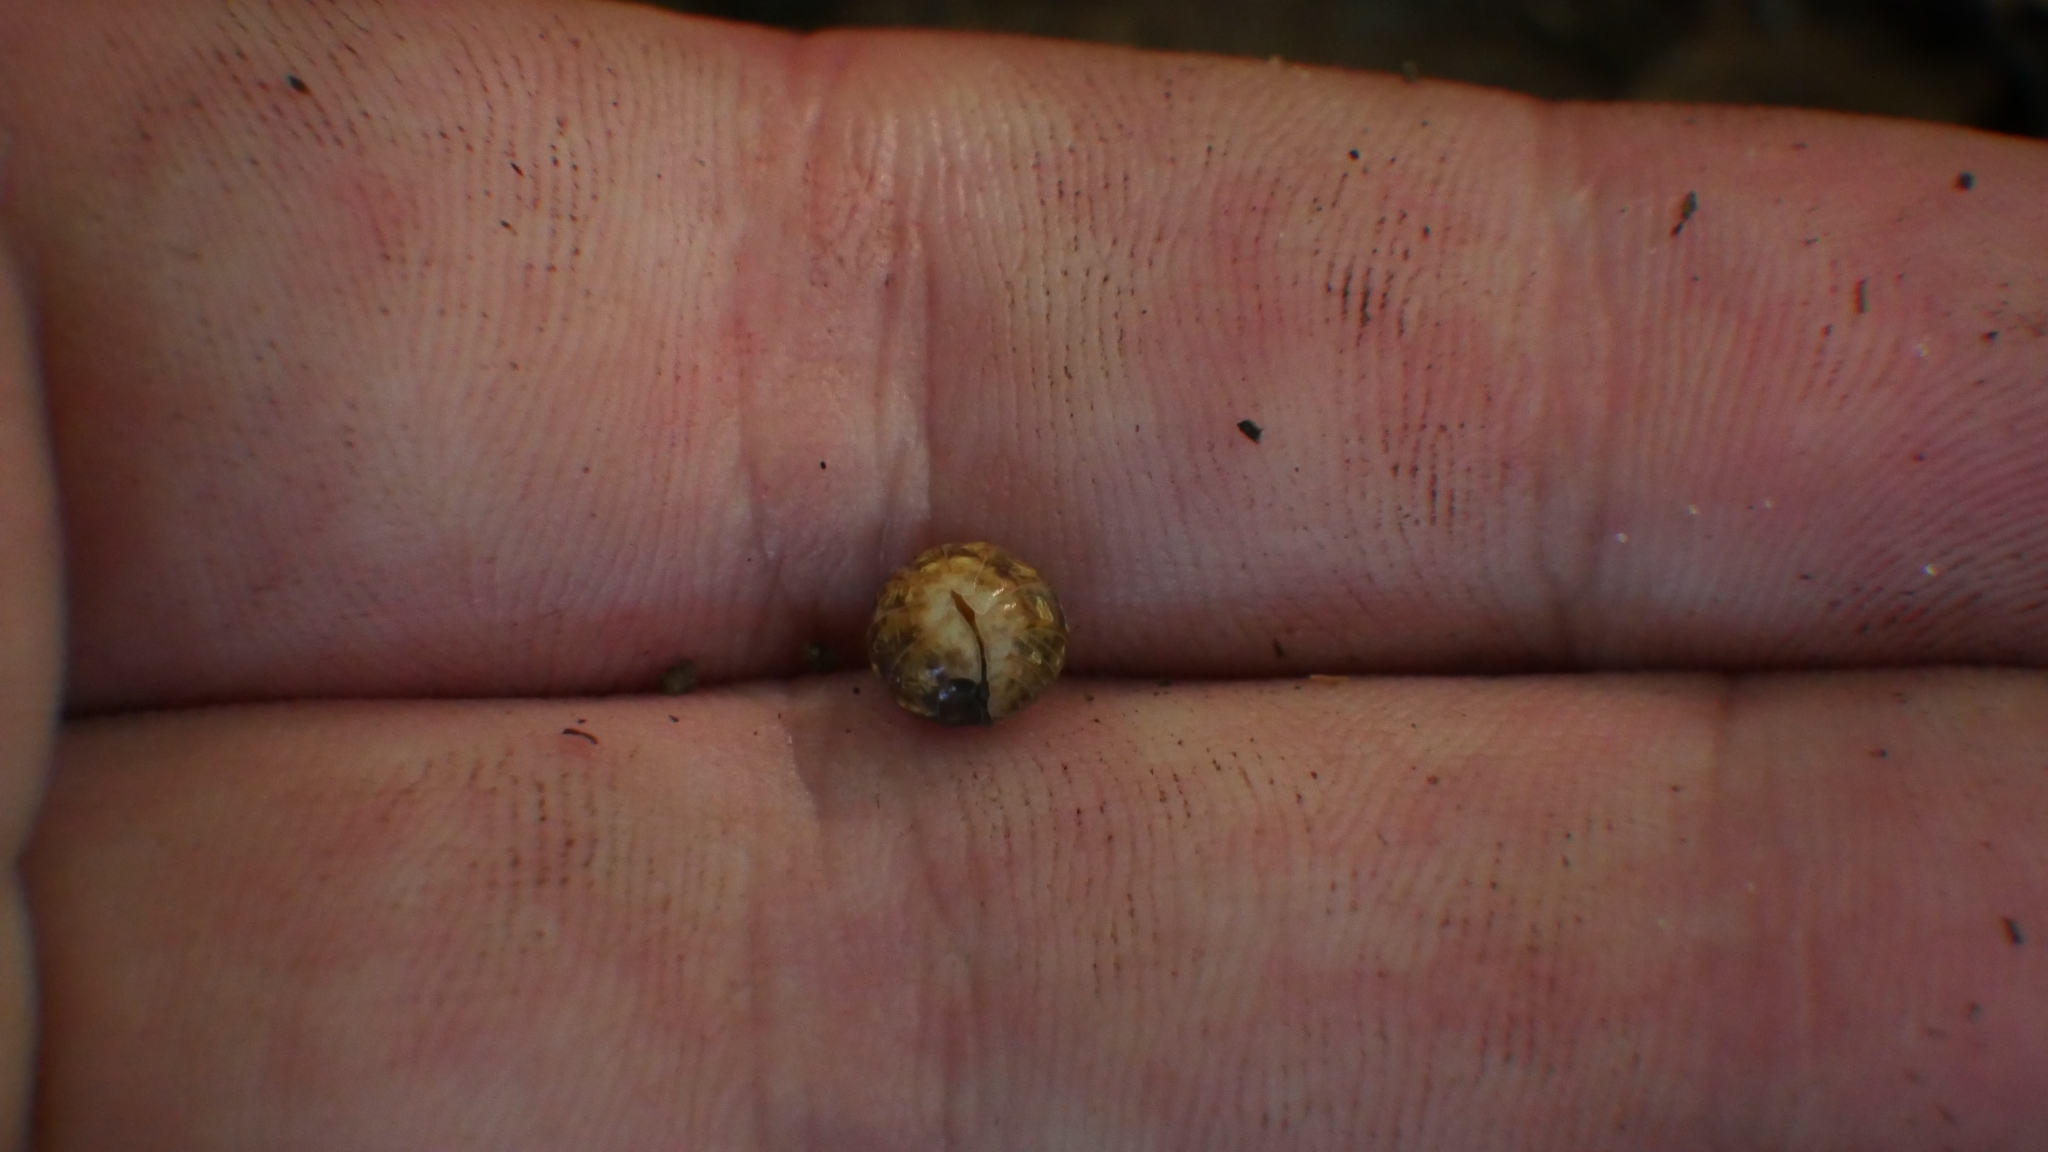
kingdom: Animalia
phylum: Arthropoda
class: Malacostraca
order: Isopoda
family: Armadillidiidae
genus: Armadillidium
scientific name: Armadillidium vulgare
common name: Common pill woodlouse
